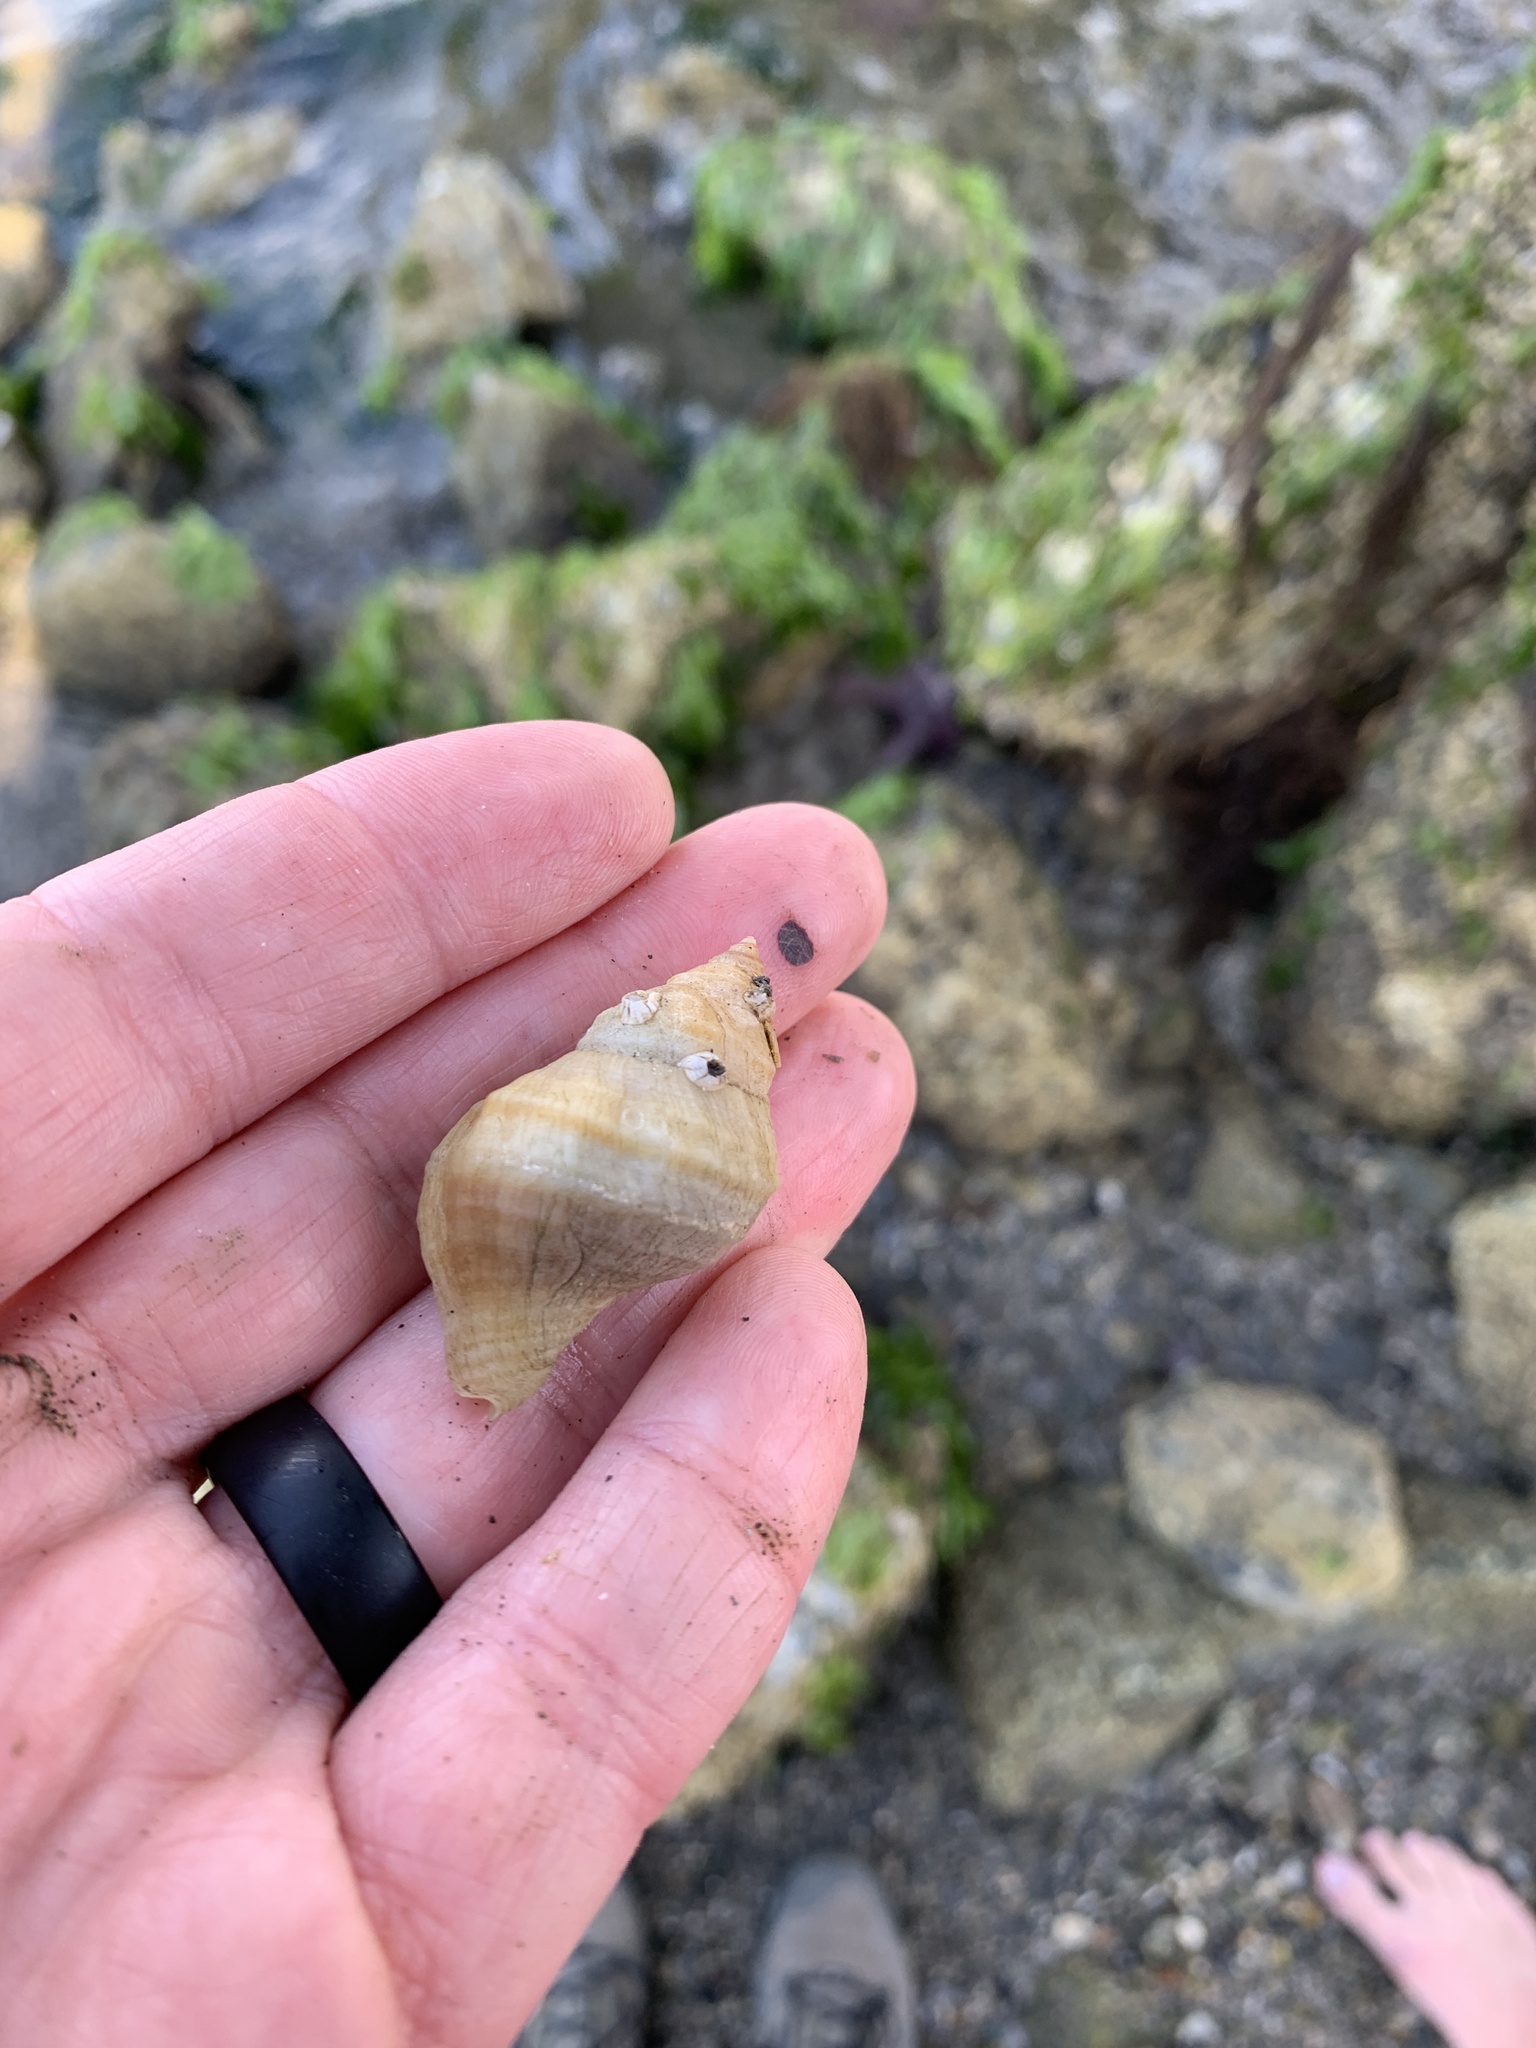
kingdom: Animalia
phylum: Mollusca
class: Gastropoda
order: Neogastropoda
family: Muricidae
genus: Nucella
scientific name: Nucella lamellosa
